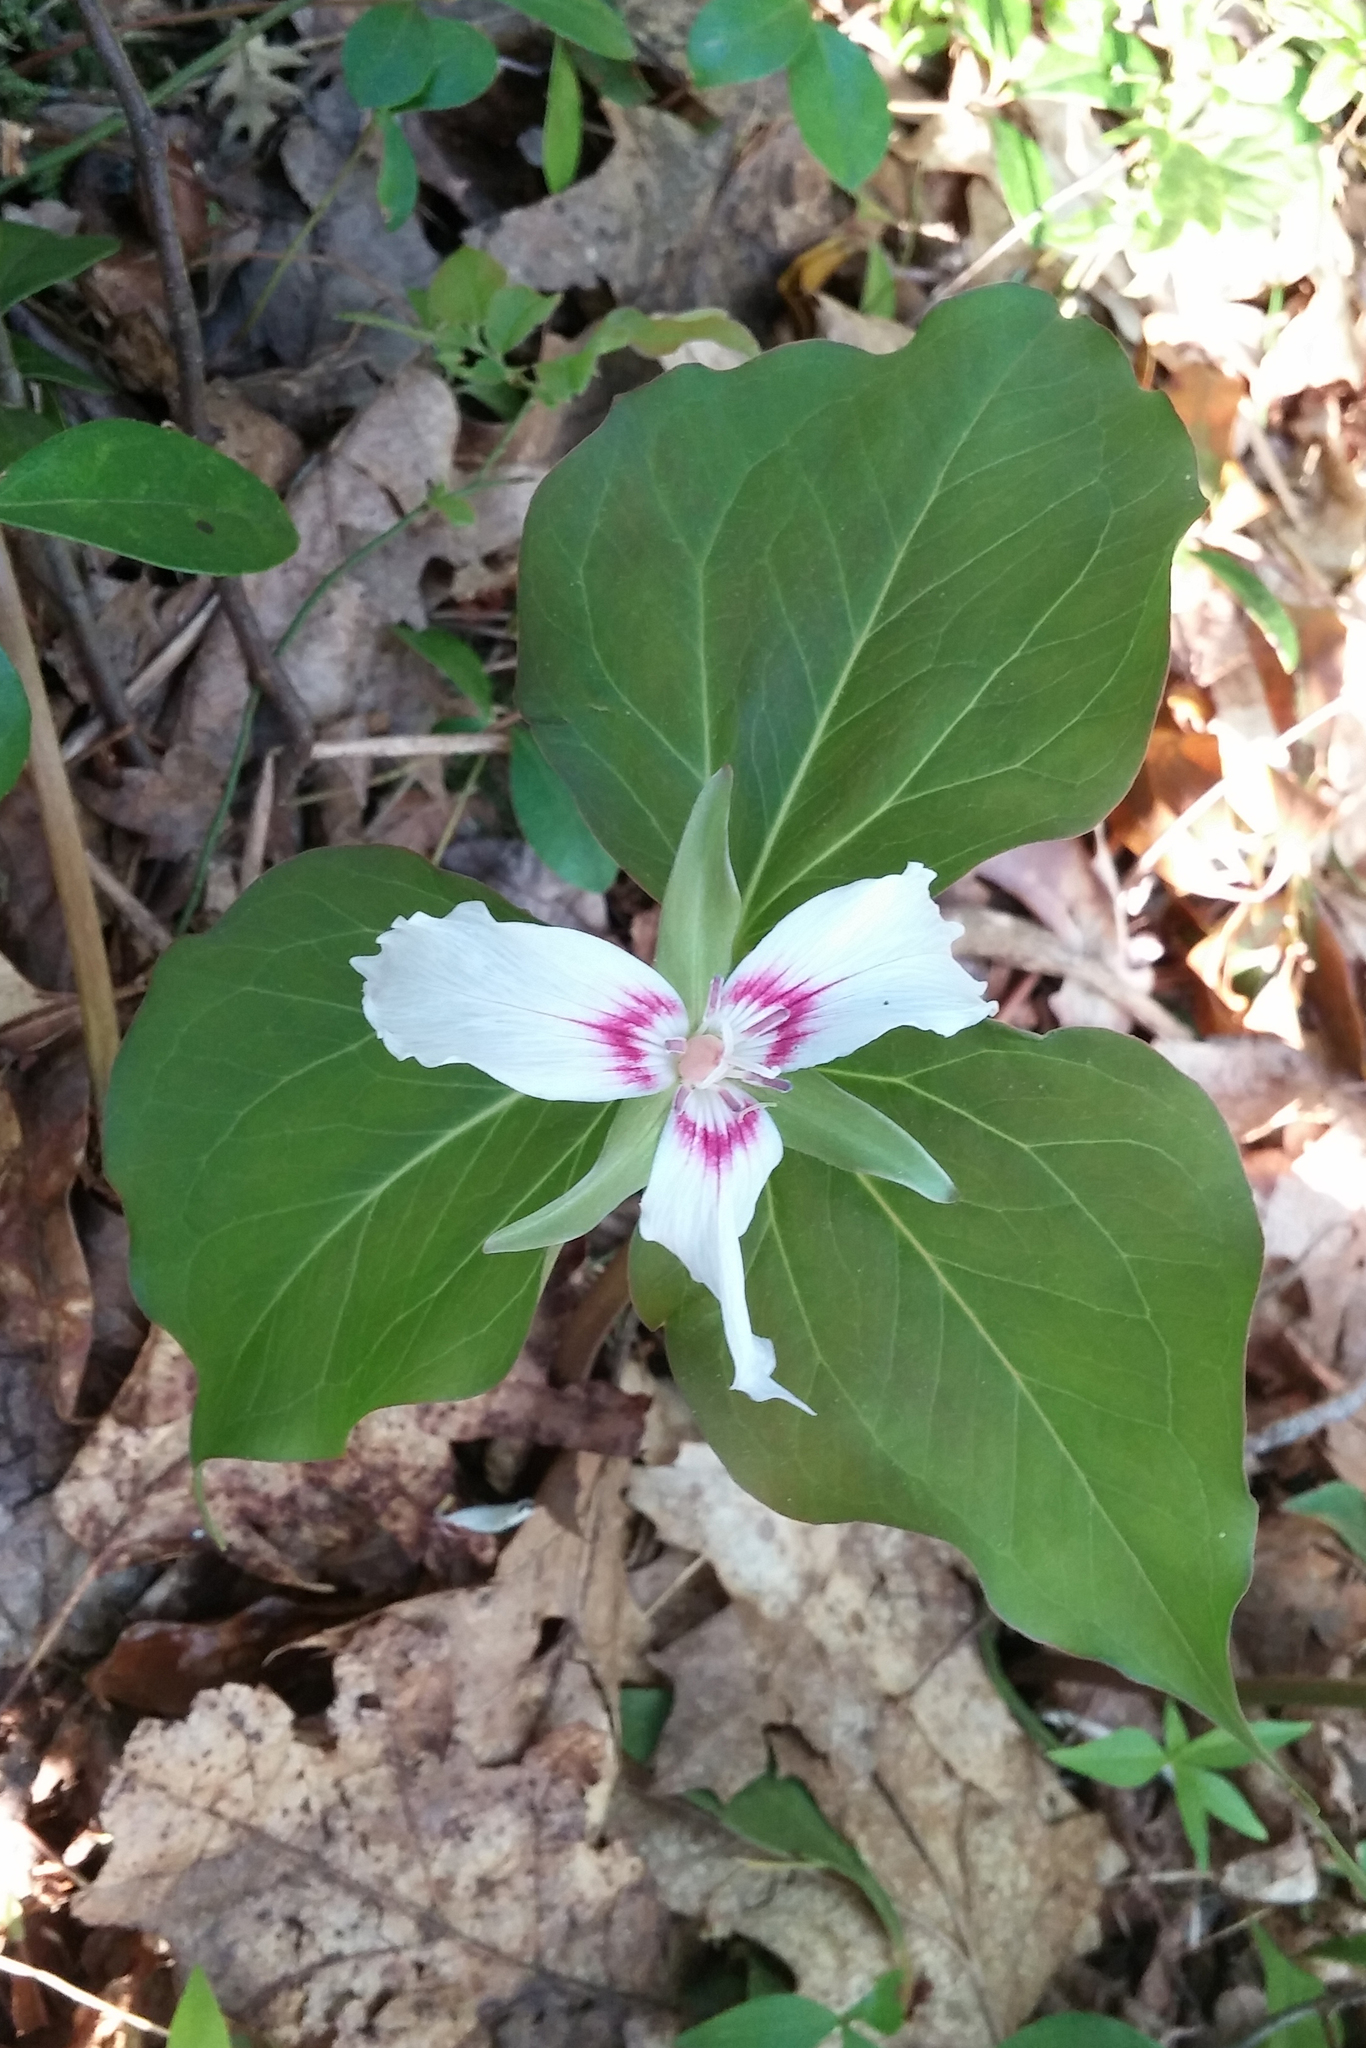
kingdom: Plantae
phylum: Tracheophyta
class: Liliopsida
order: Liliales
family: Melanthiaceae
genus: Trillium
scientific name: Trillium undulatum
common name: Paint trillium
